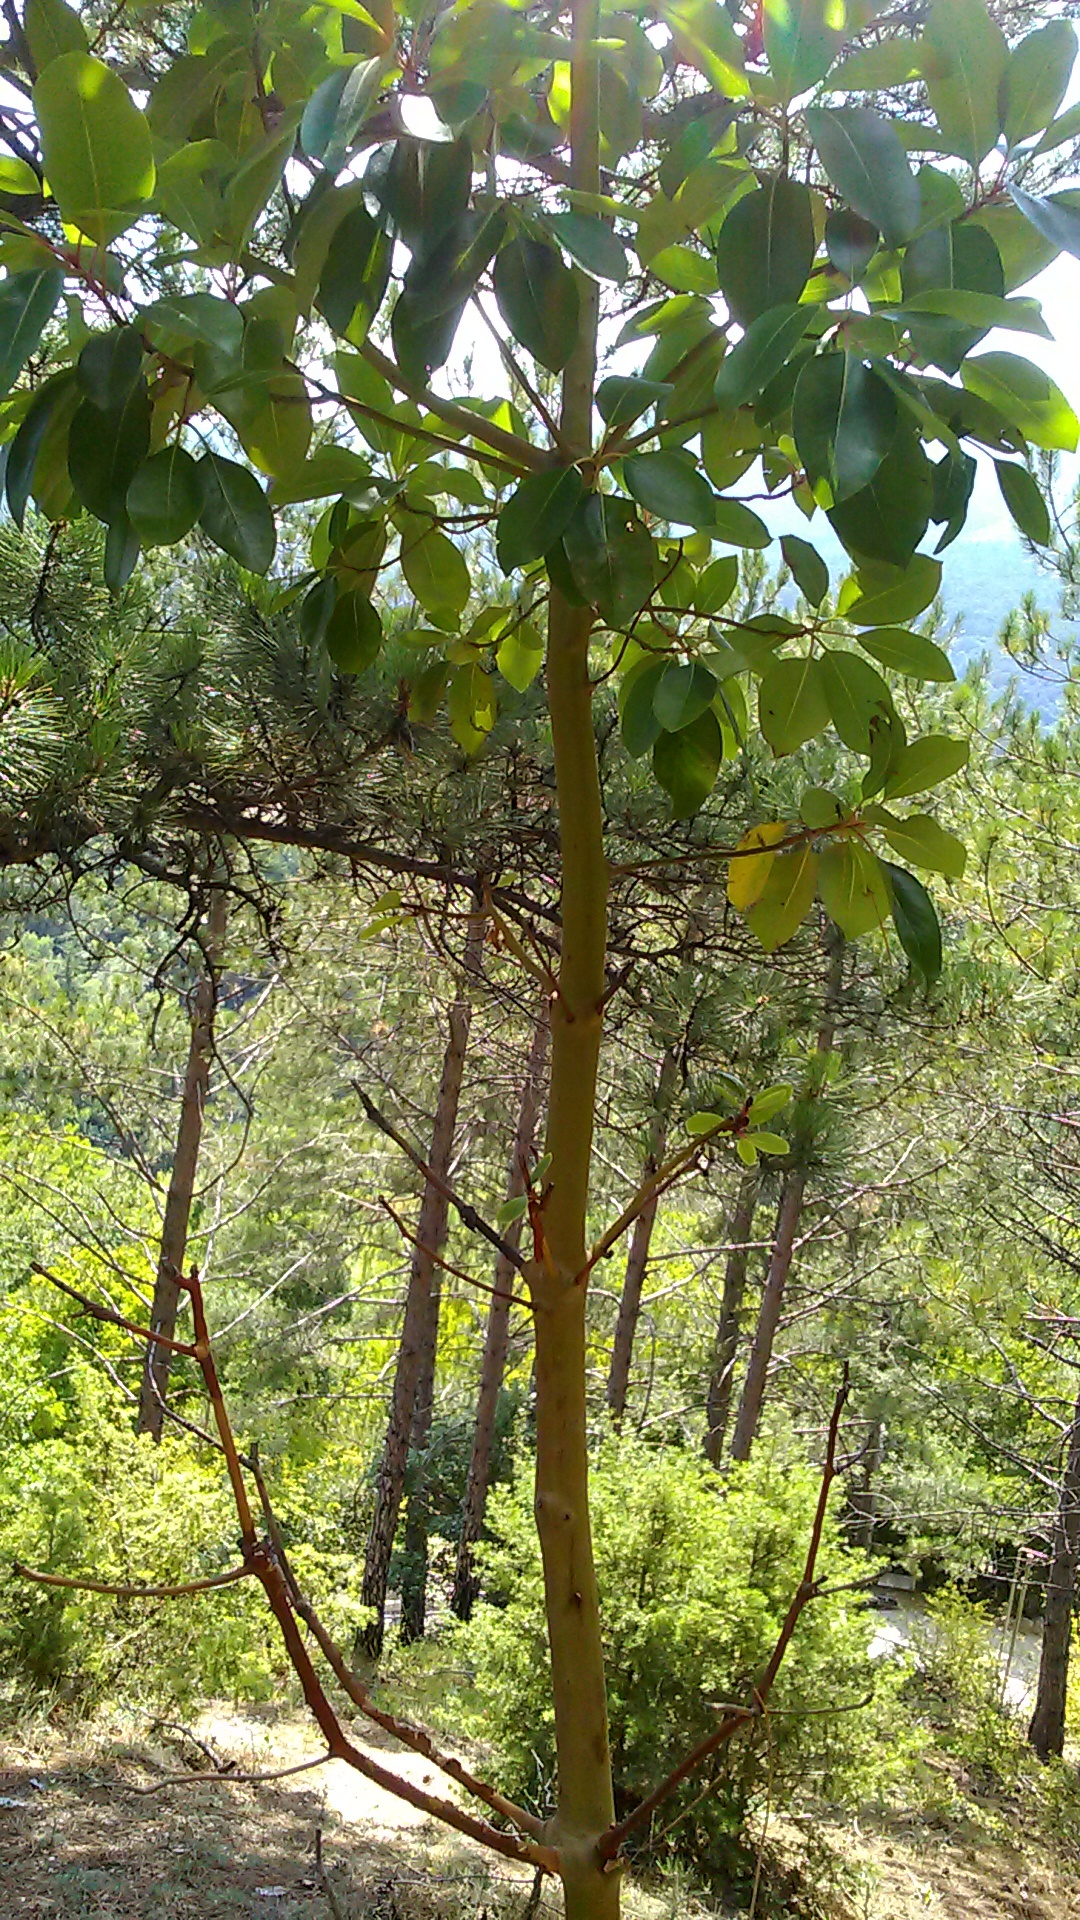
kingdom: Plantae
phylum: Tracheophyta
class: Magnoliopsida
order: Ericales
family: Ericaceae
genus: Arbutus
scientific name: Arbutus andrachne
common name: Greek strawberry tree
